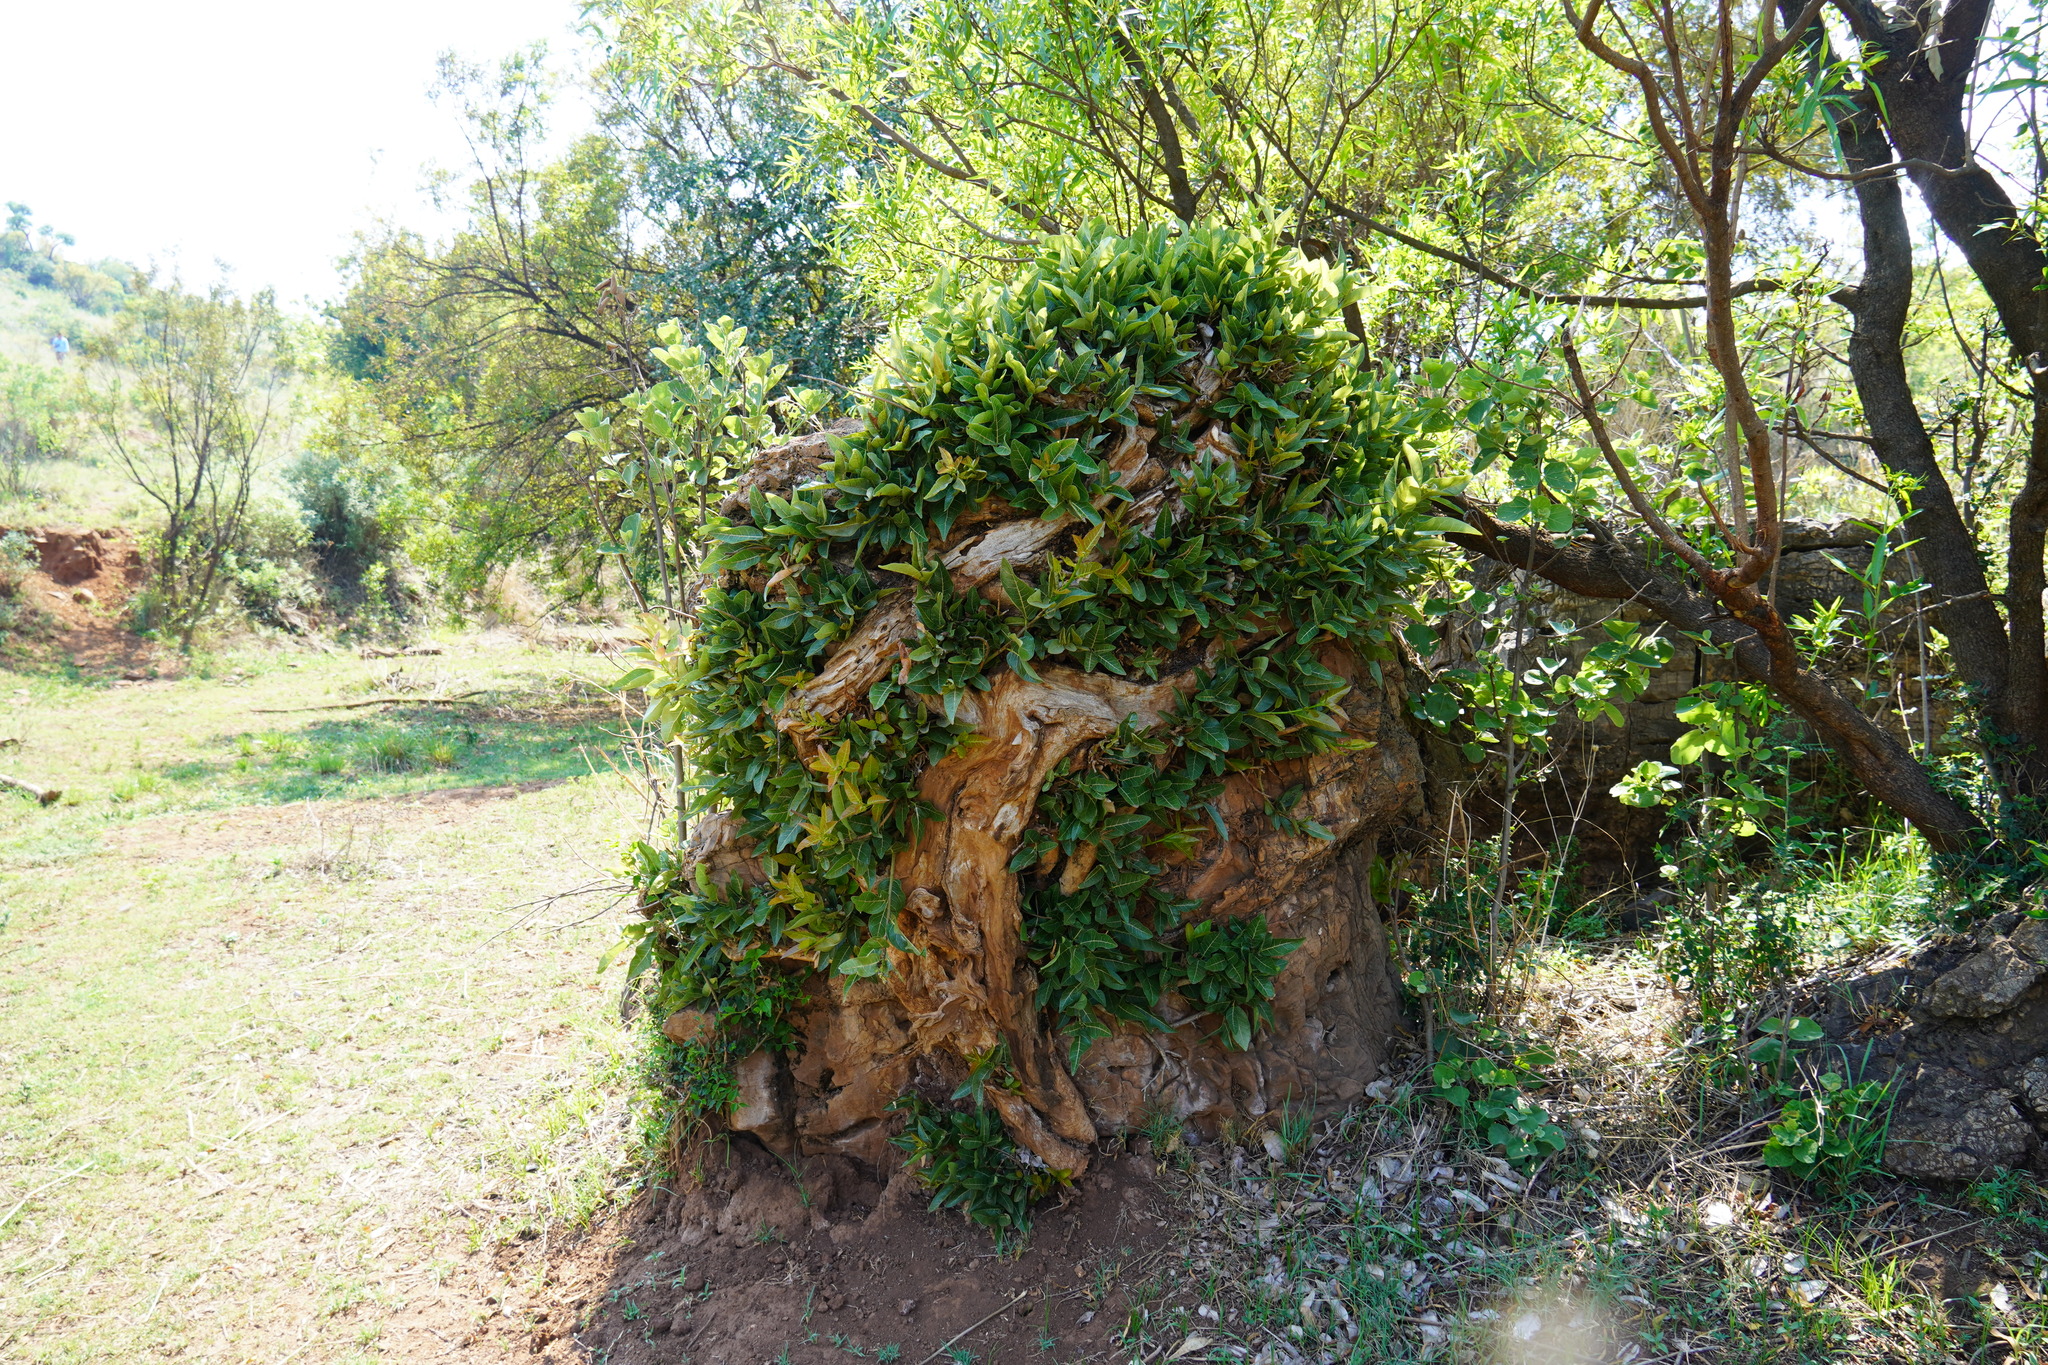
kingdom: Plantae
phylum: Tracheophyta
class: Magnoliopsida
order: Rosales
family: Moraceae
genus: Ficus
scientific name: Ficus ingens
